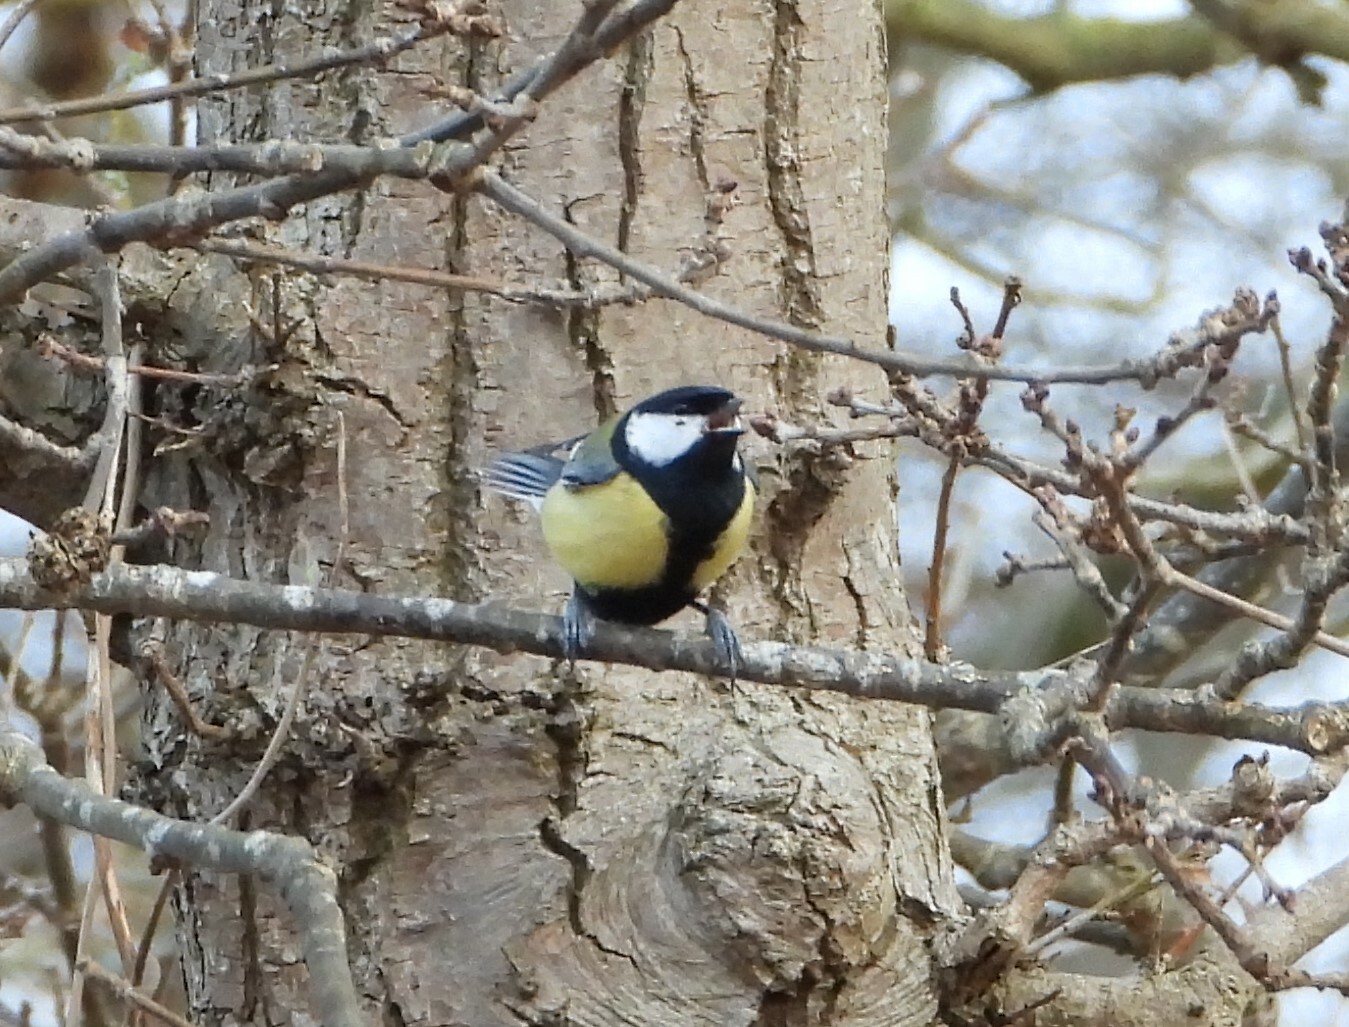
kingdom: Animalia
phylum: Chordata
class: Aves
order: Passeriformes
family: Paridae
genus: Parus
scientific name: Parus major
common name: Great tit
